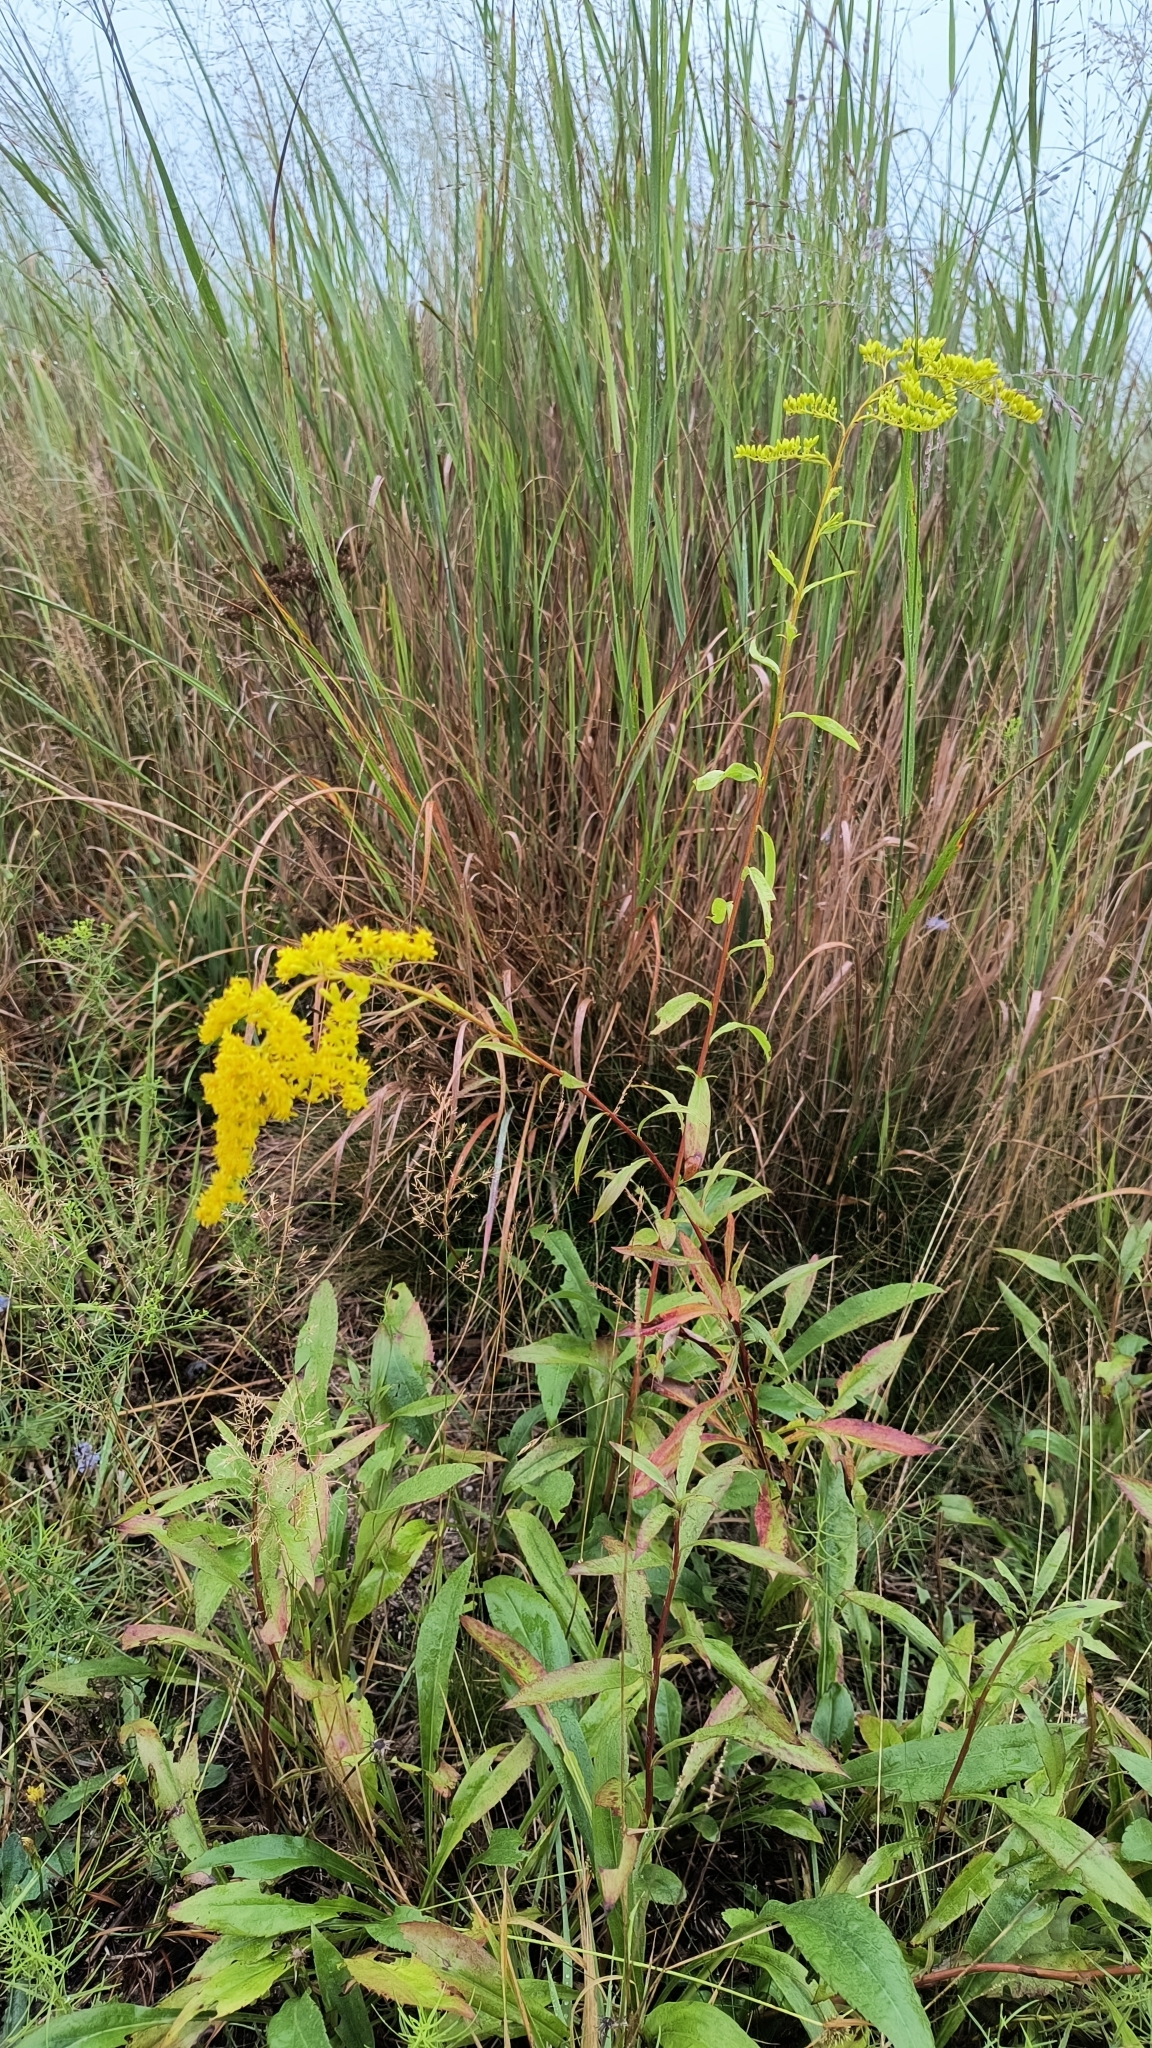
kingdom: Plantae
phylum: Tracheophyta
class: Magnoliopsida
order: Asterales
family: Asteraceae
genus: Solidago
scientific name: Solidago juncea
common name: Early goldenrod
